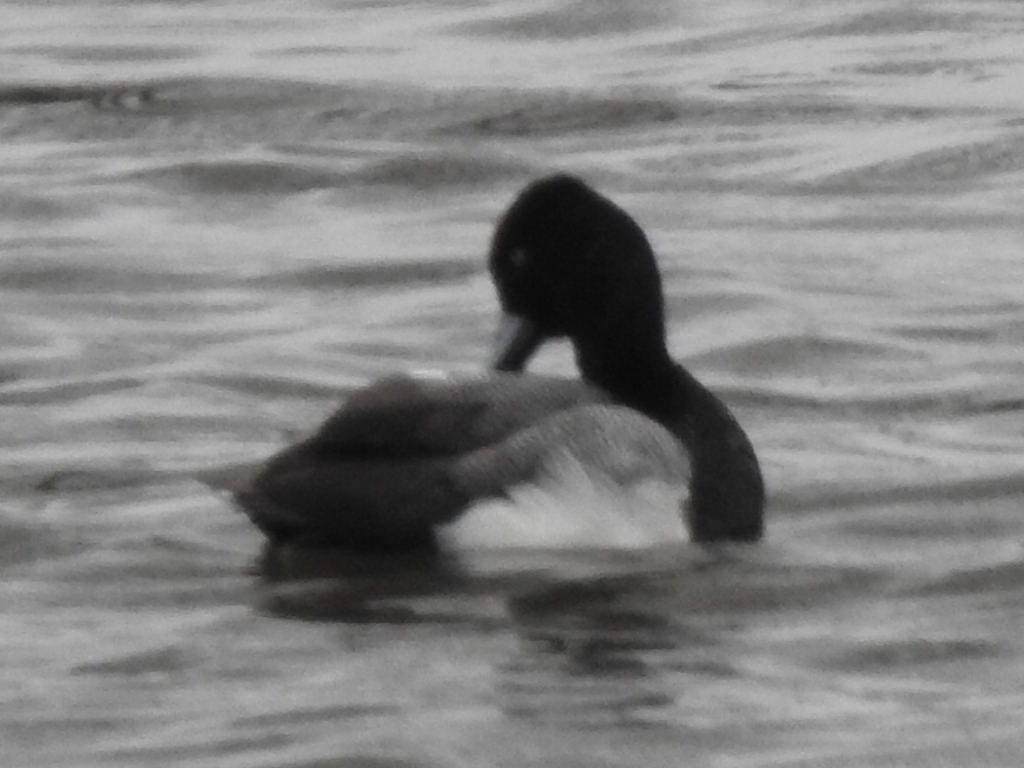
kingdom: Animalia
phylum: Chordata
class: Aves
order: Anseriformes
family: Anatidae
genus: Aythya
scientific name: Aythya affinis
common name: Lesser scaup
